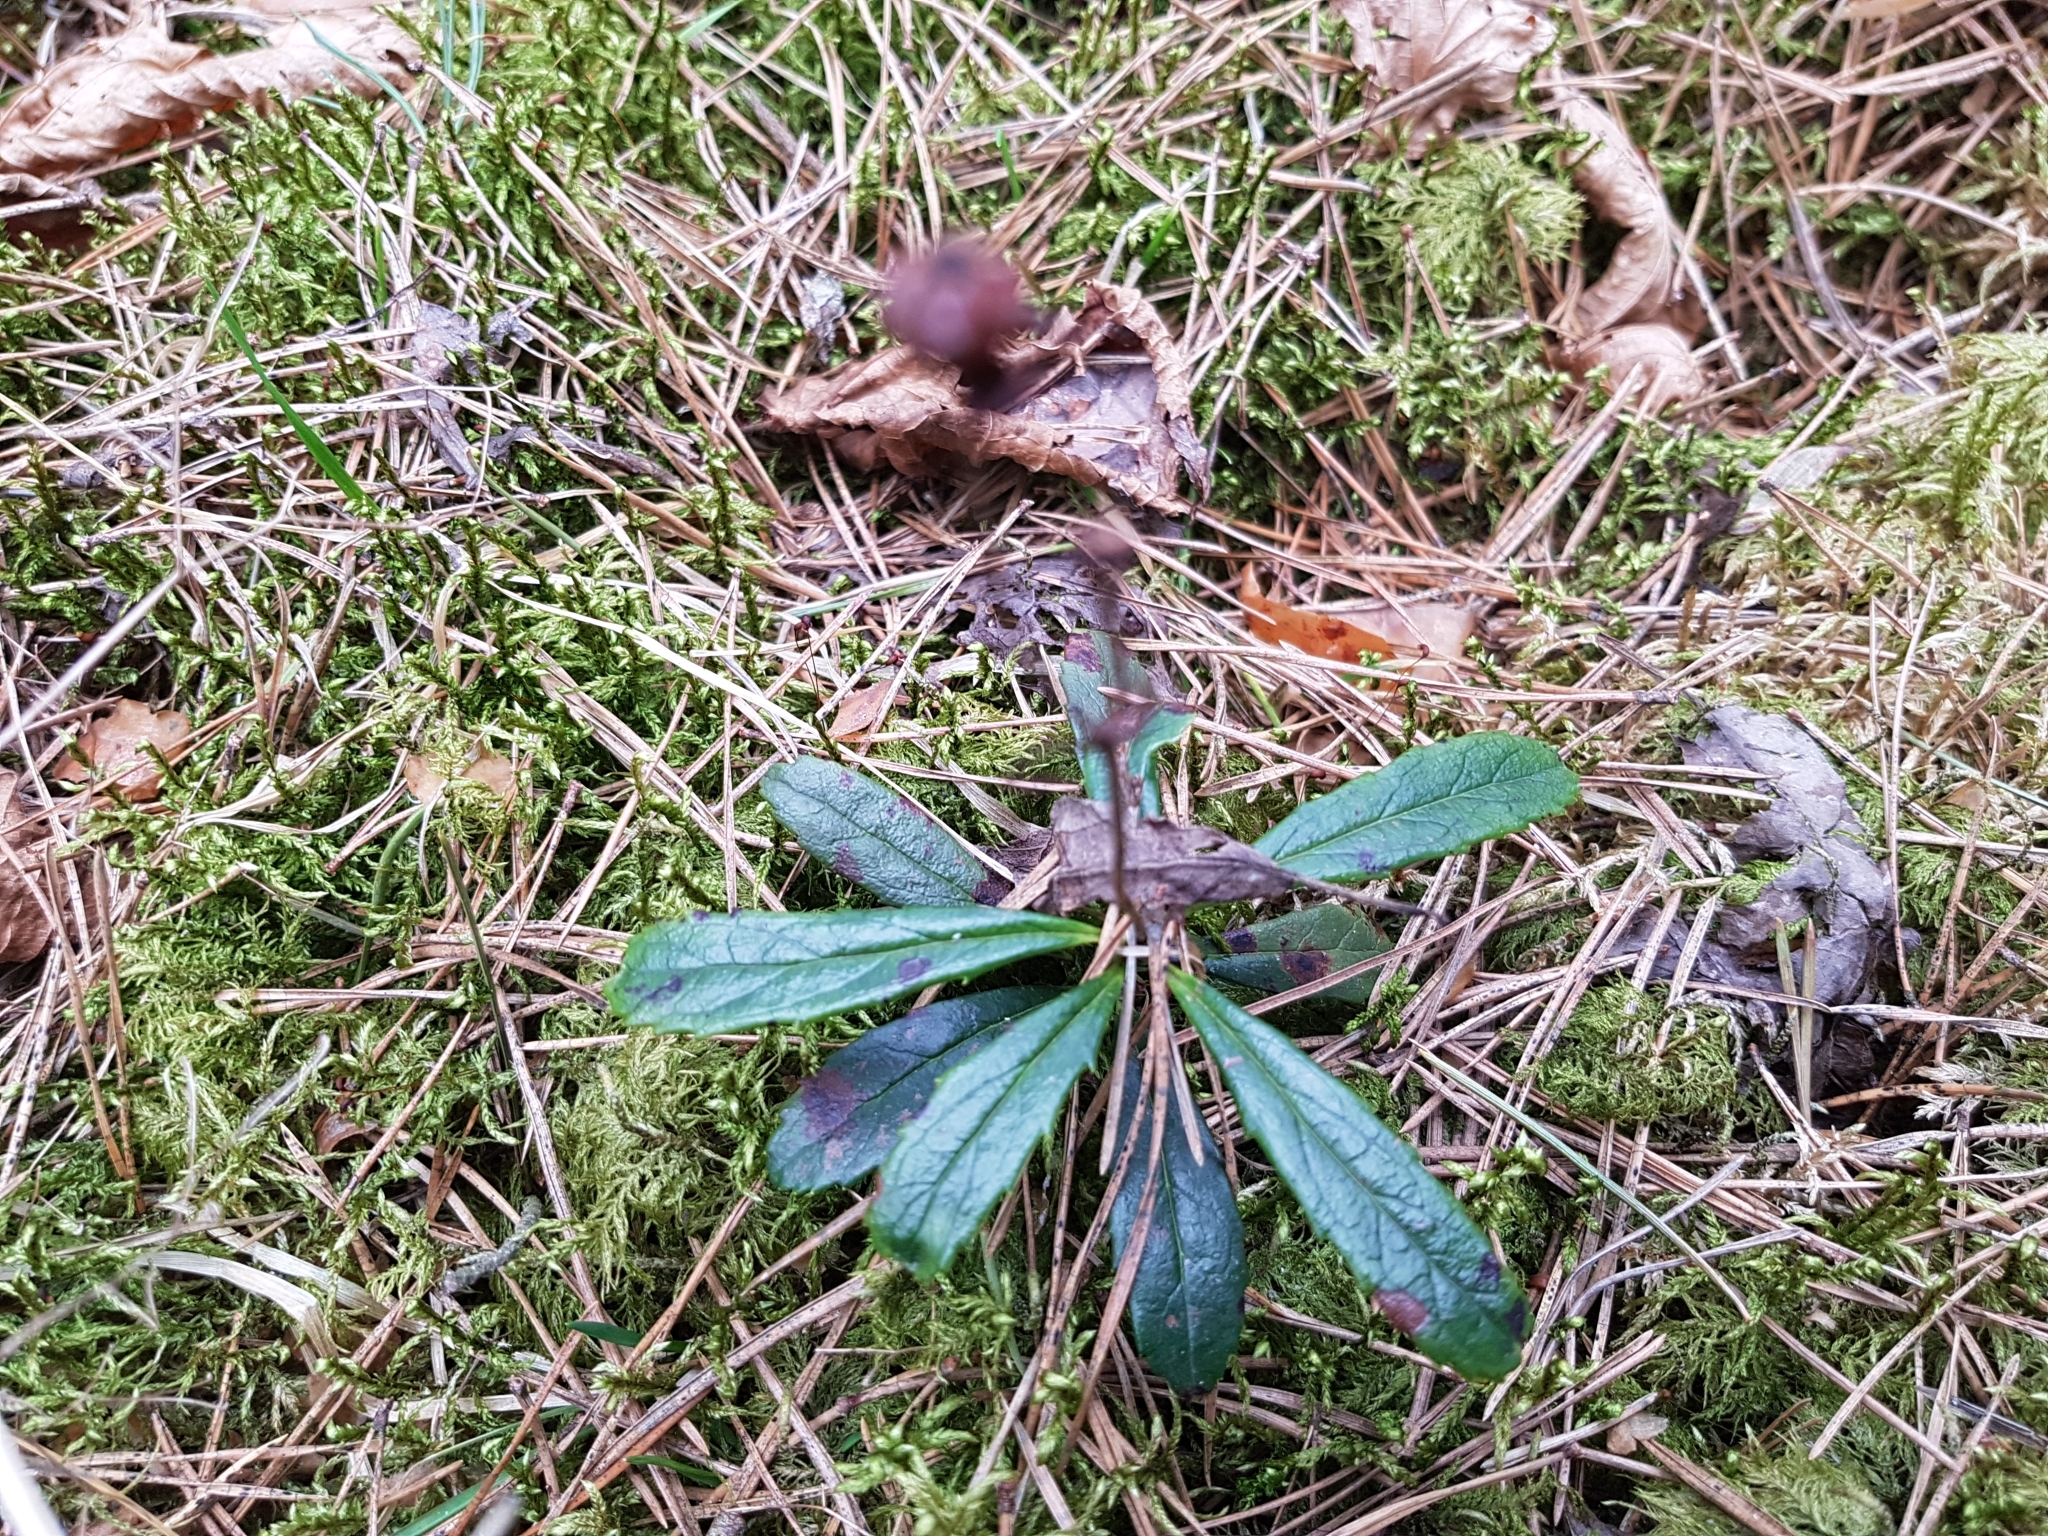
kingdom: Plantae
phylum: Tracheophyta
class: Magnoliopsida
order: Ericales
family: Ericaceae
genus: Chimaphila
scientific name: Chimaphila umbellata
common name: Pipsissewa
